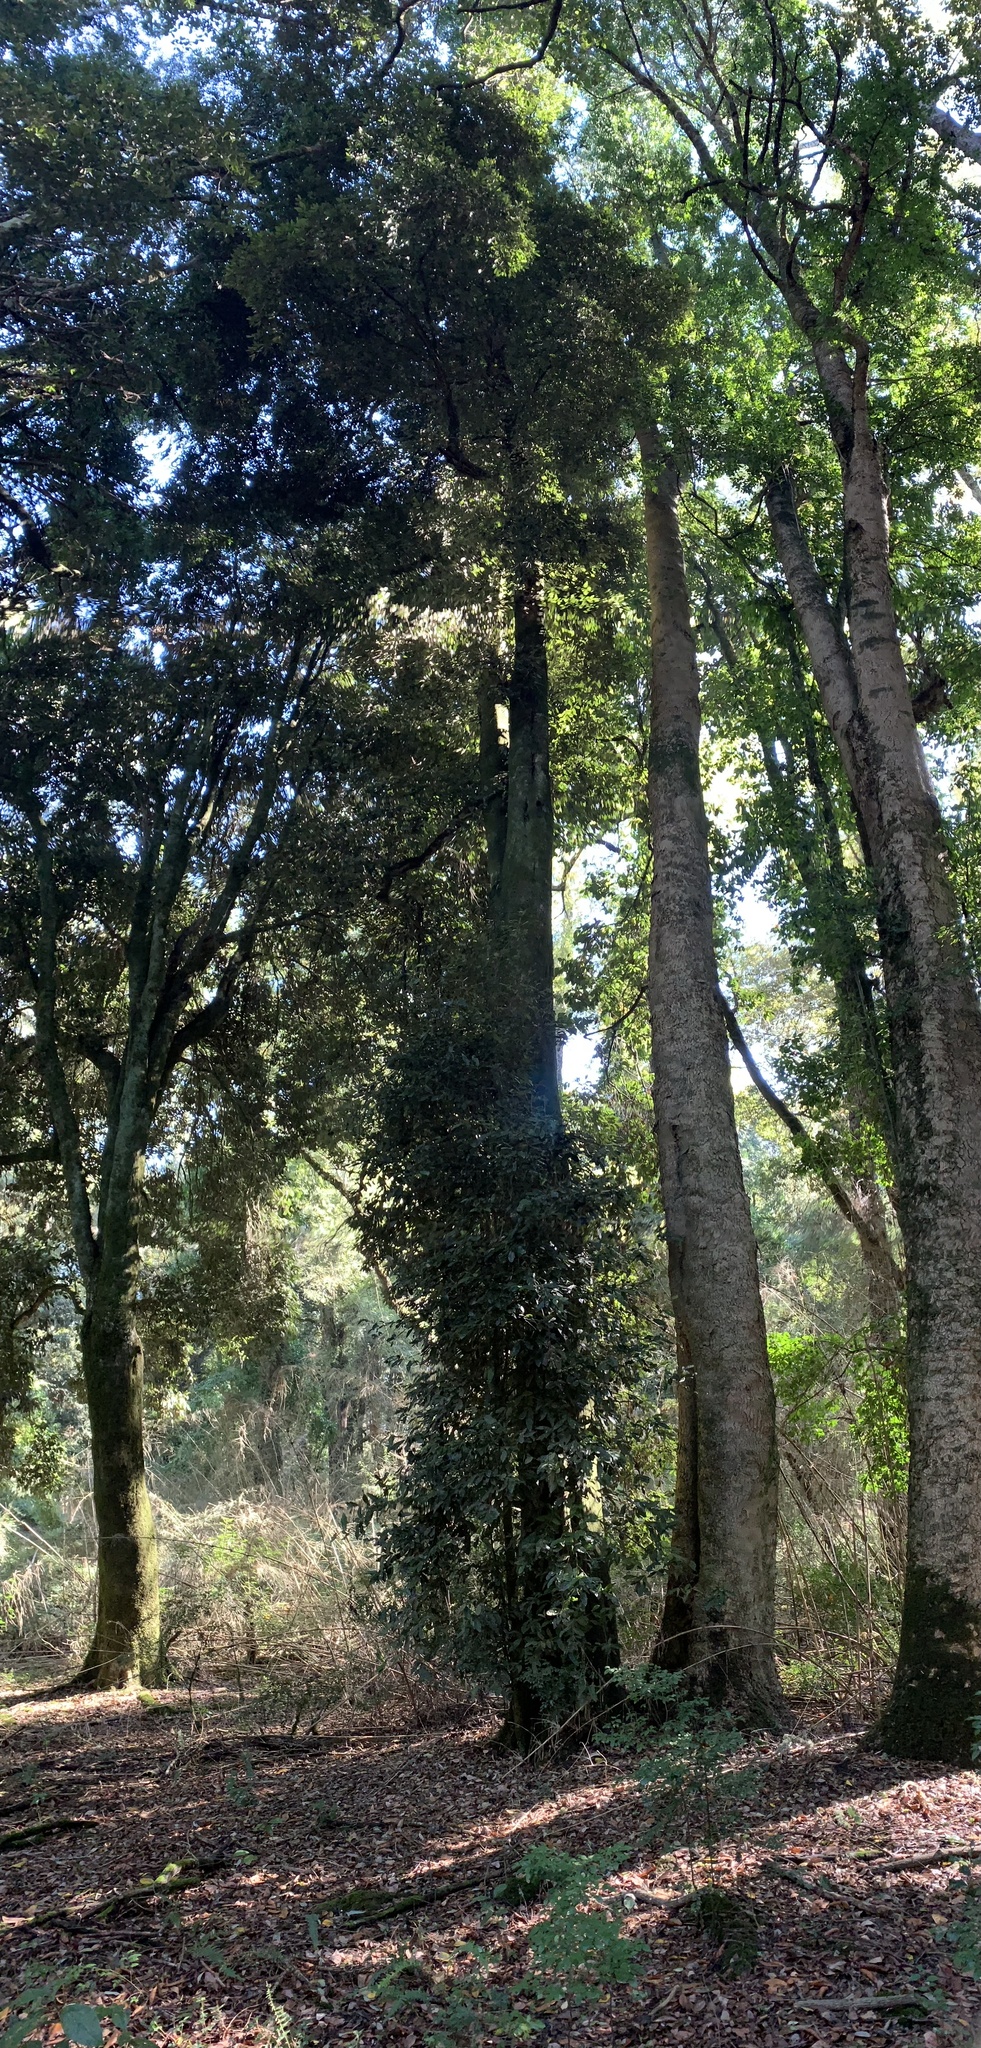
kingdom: Plantae
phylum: Tracheophyta
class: Magnoliopsida
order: Berberidopsidales
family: Aextoxicaceae
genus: Aextoxicon
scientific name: Aextoxicon punctatum
